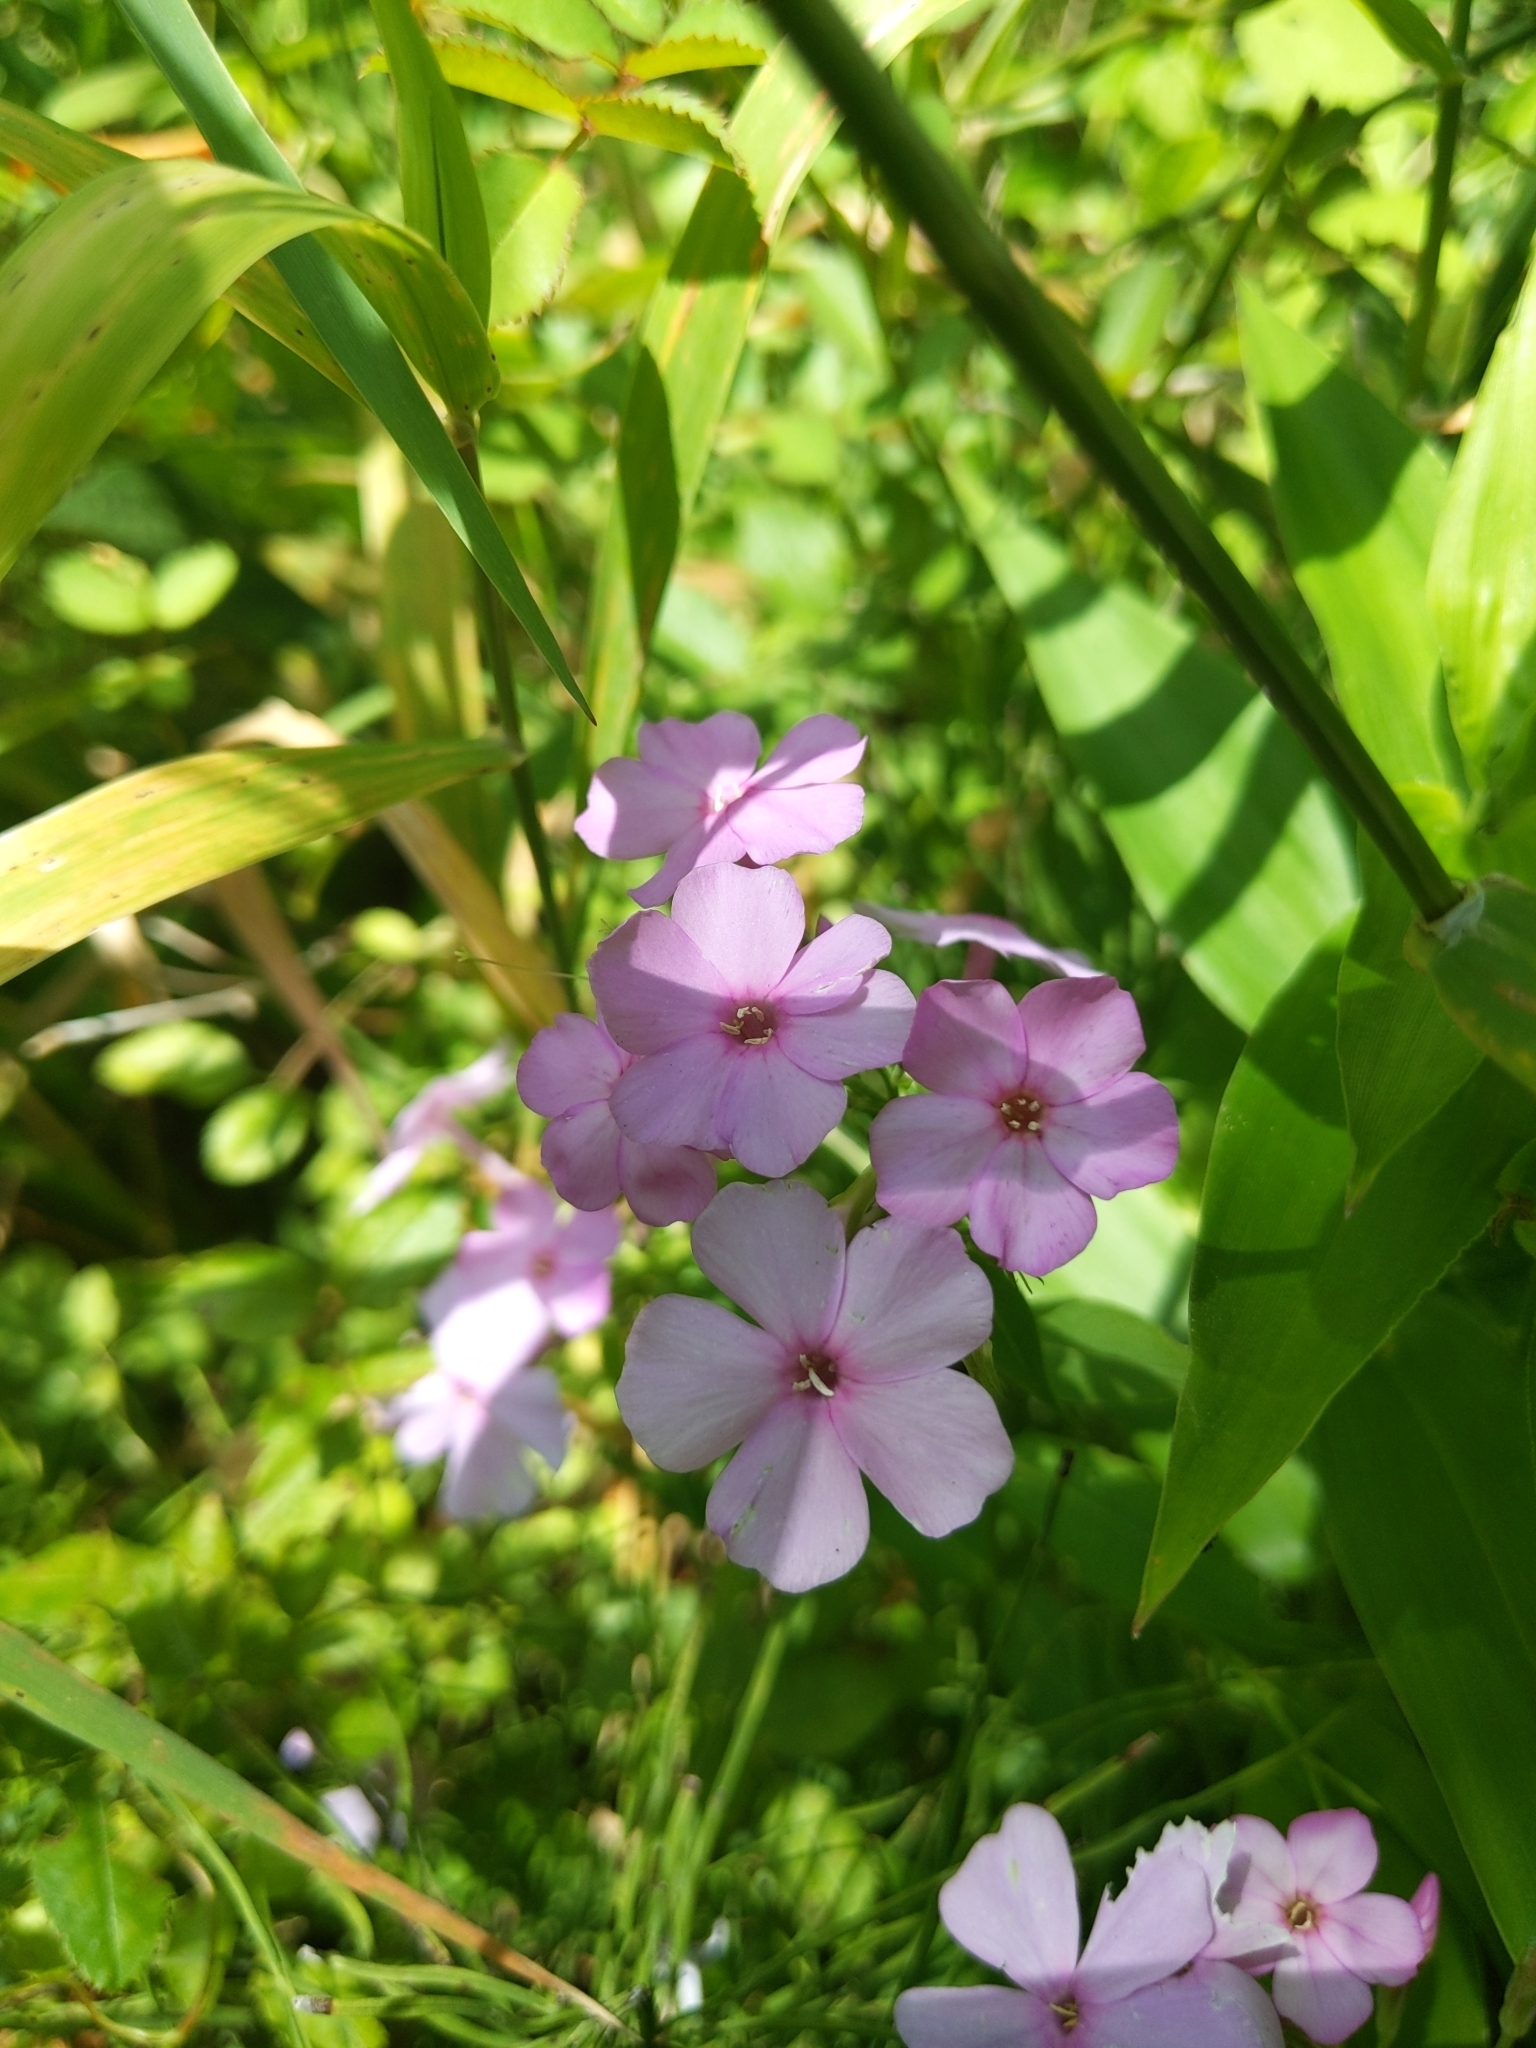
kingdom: Plantae
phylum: Tracheophyta
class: Magnoliopsida
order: Ericales
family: Polemoniaceae
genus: Phlox
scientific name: Phlox paniculata
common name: Fall phlox
